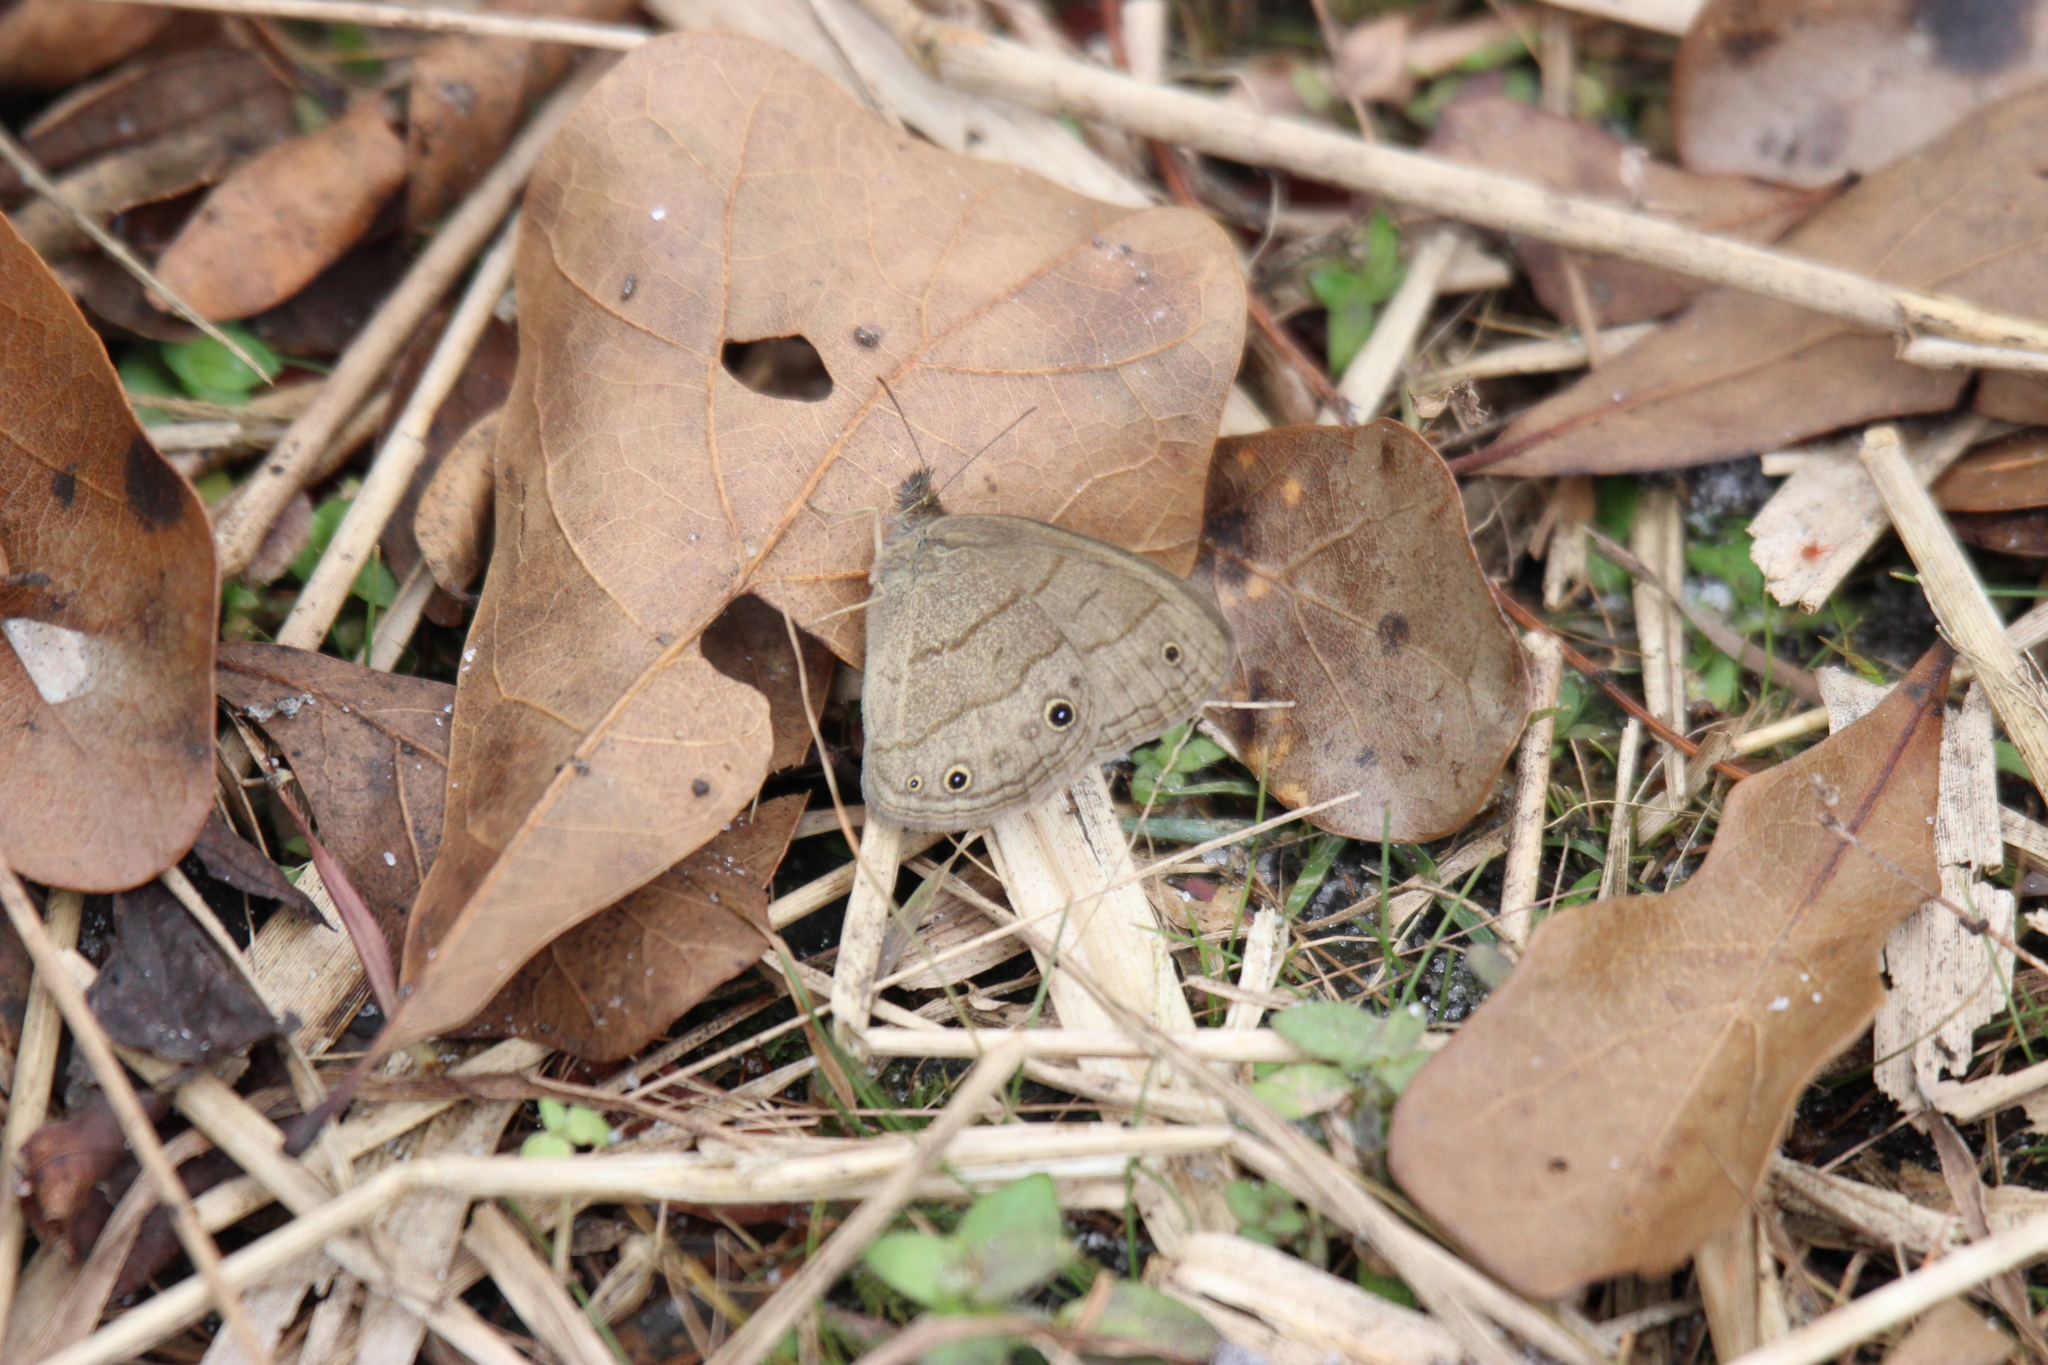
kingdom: Animalia
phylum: Arthropoda
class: Insecta
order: Lepidoptera
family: Nymphalidae
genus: Hermeuptychia
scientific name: Hermeuptychia hermes
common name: Hermes satyr
